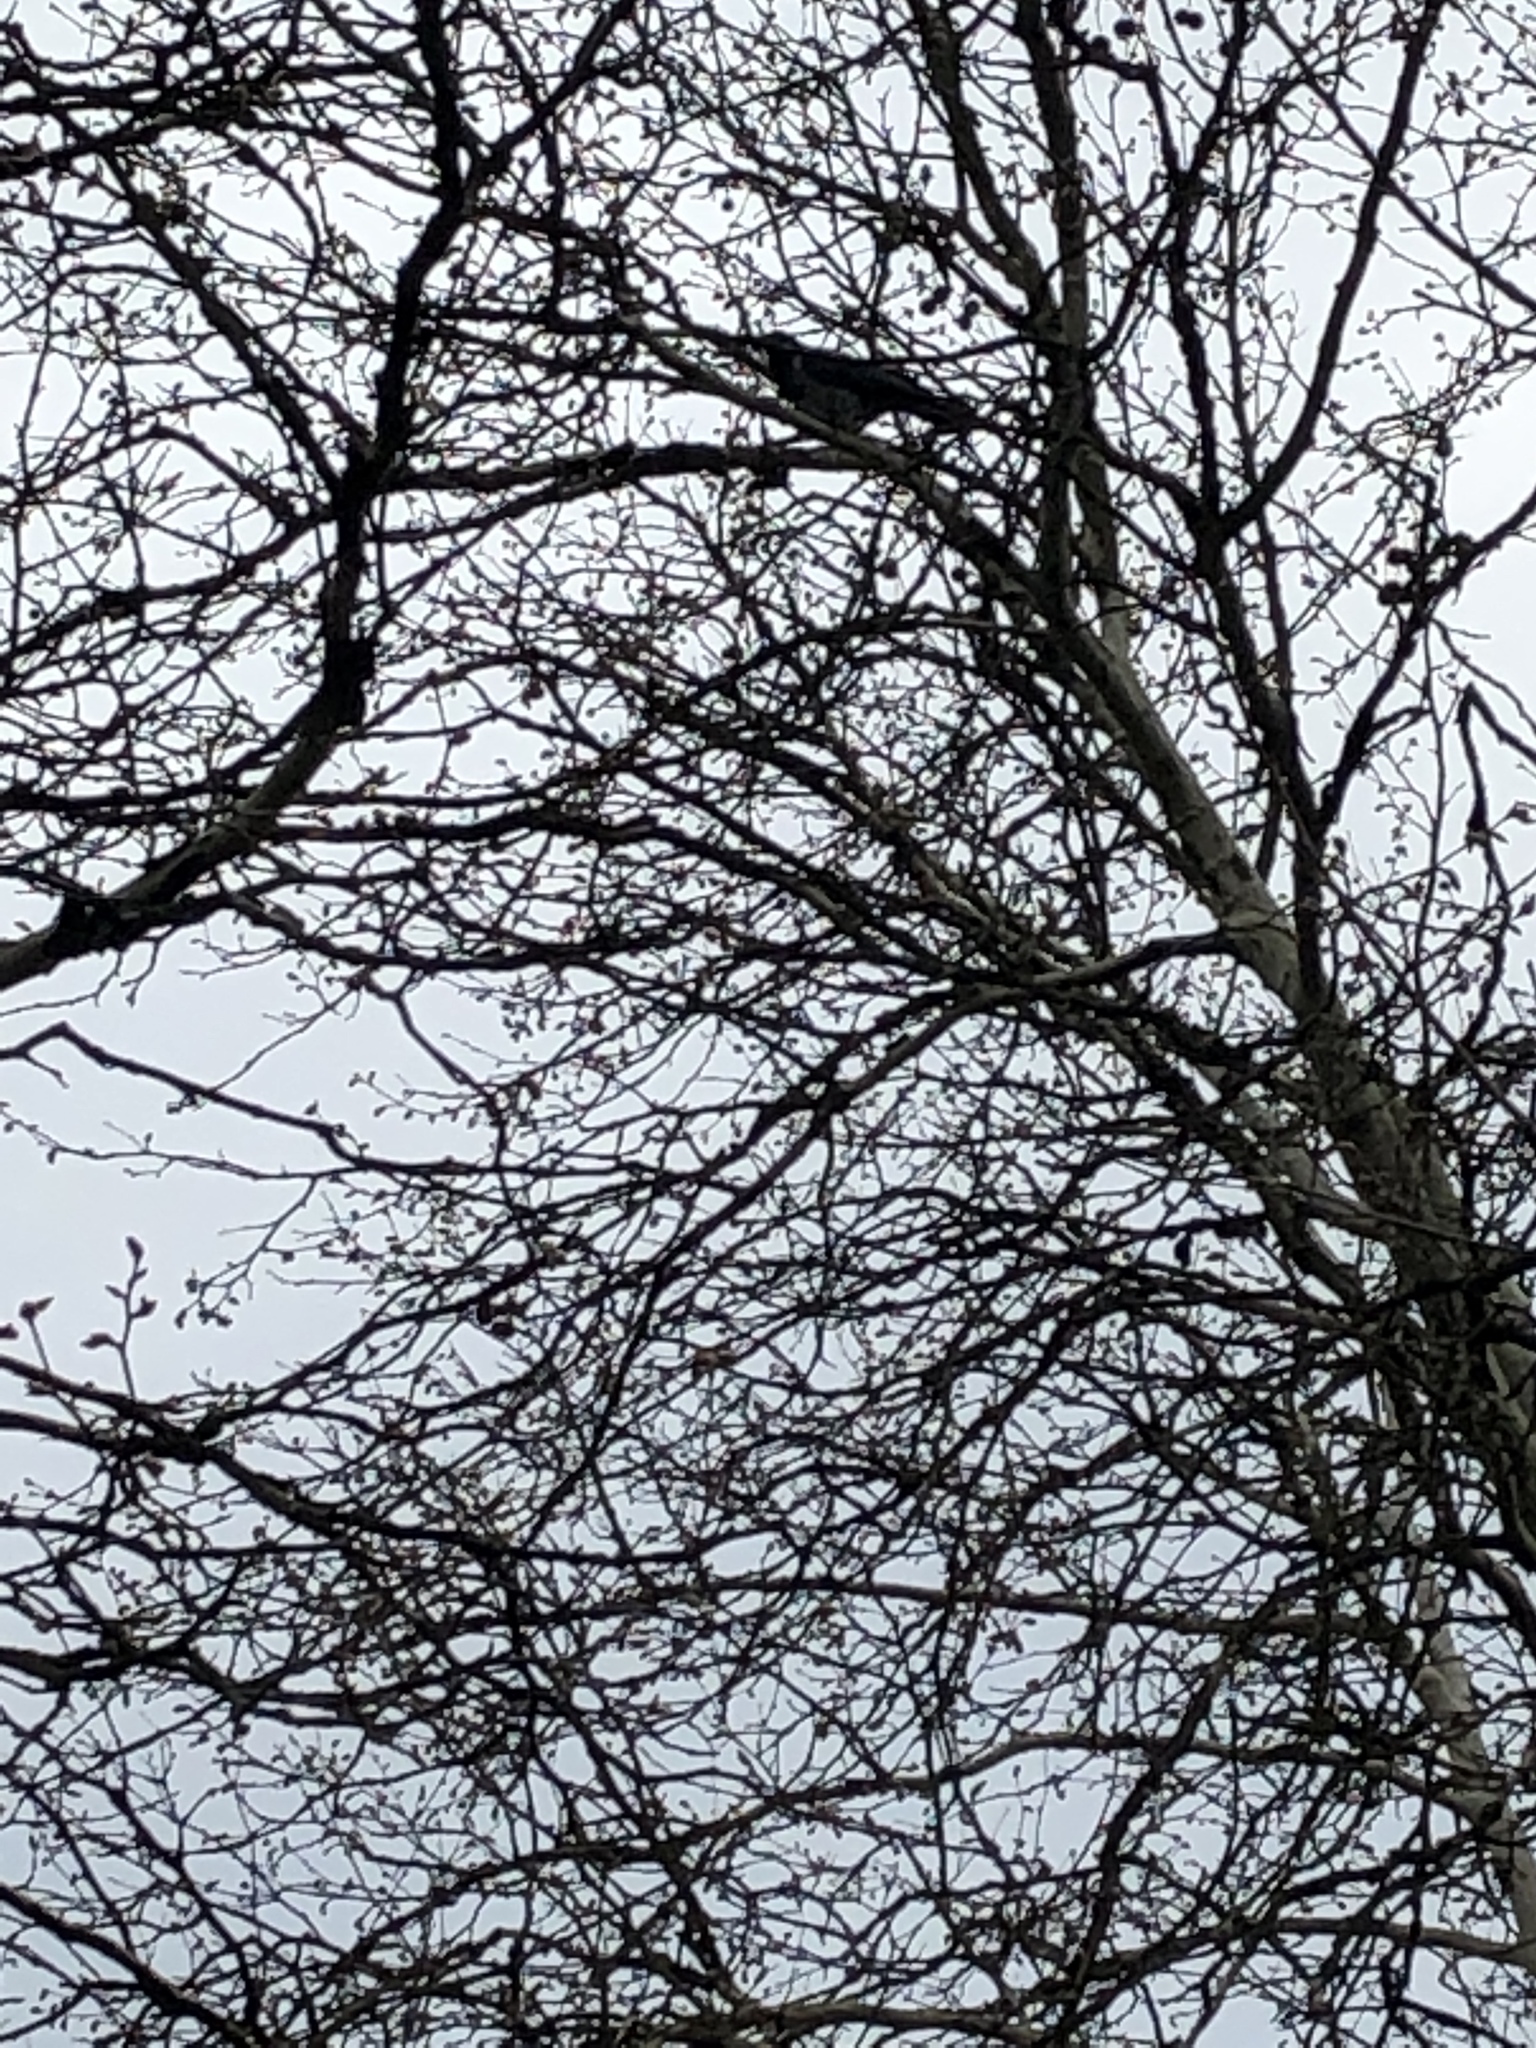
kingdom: Animalia
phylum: Chordata
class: Aves
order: Passeriformes
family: Corvidae
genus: Corvus
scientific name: Corvus cornix
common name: Hooded crow
